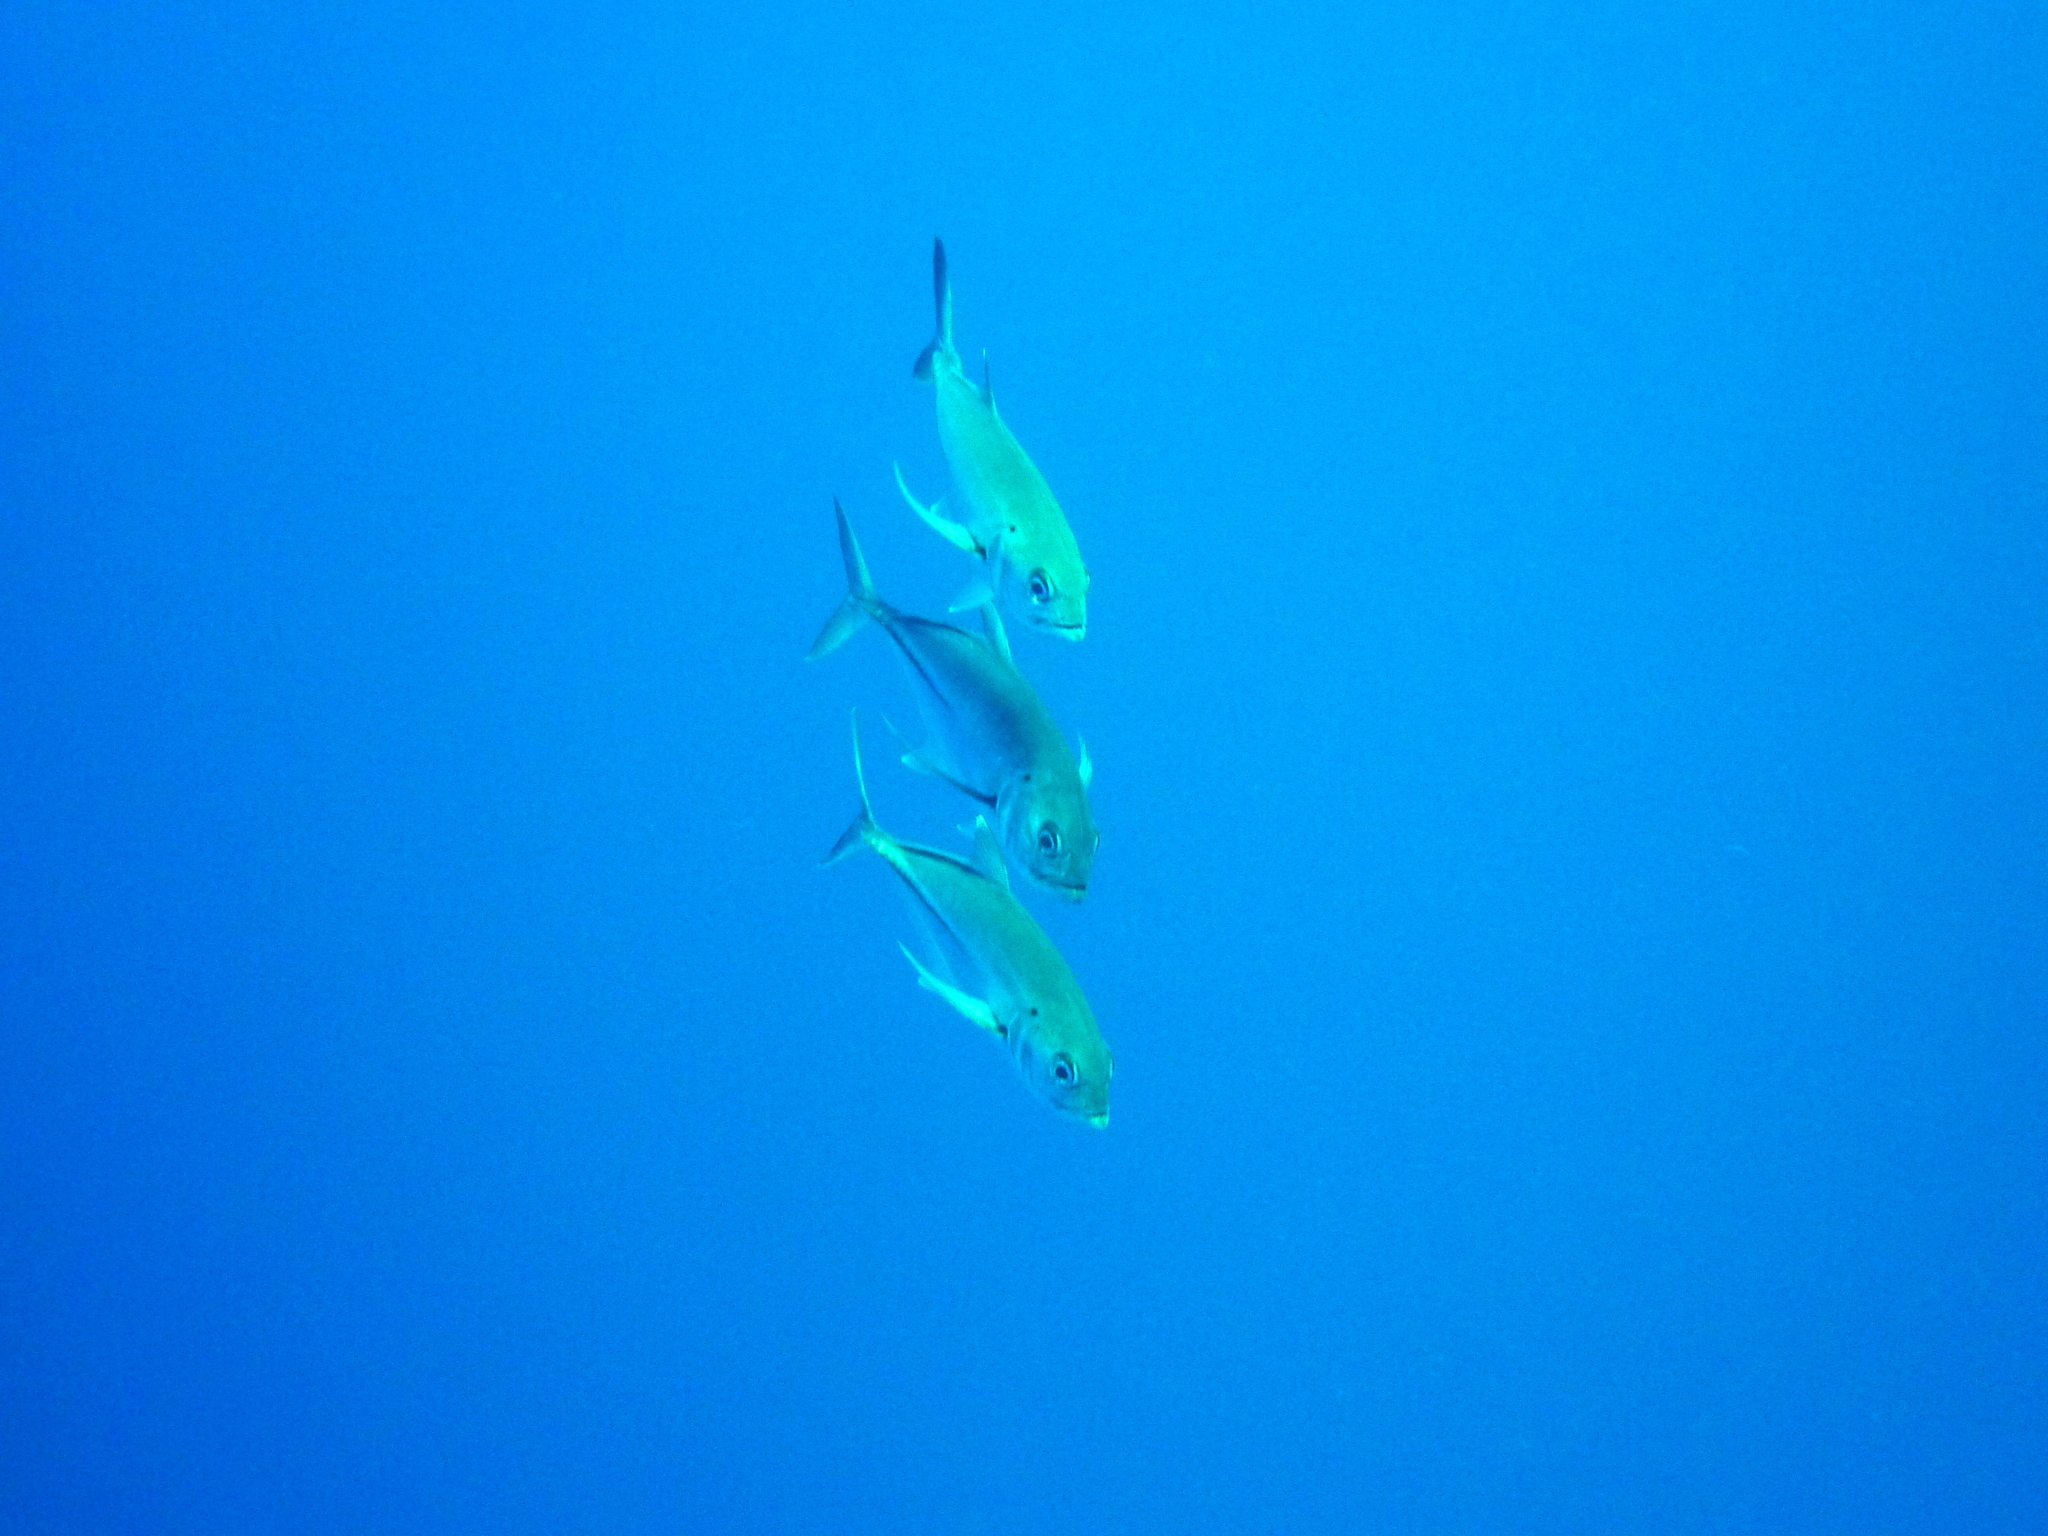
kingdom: Animalia
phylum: Chordata
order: Perciformes
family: Carangidae
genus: Caranx
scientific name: Caranx sexfasciatus
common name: Bigeye trevally
